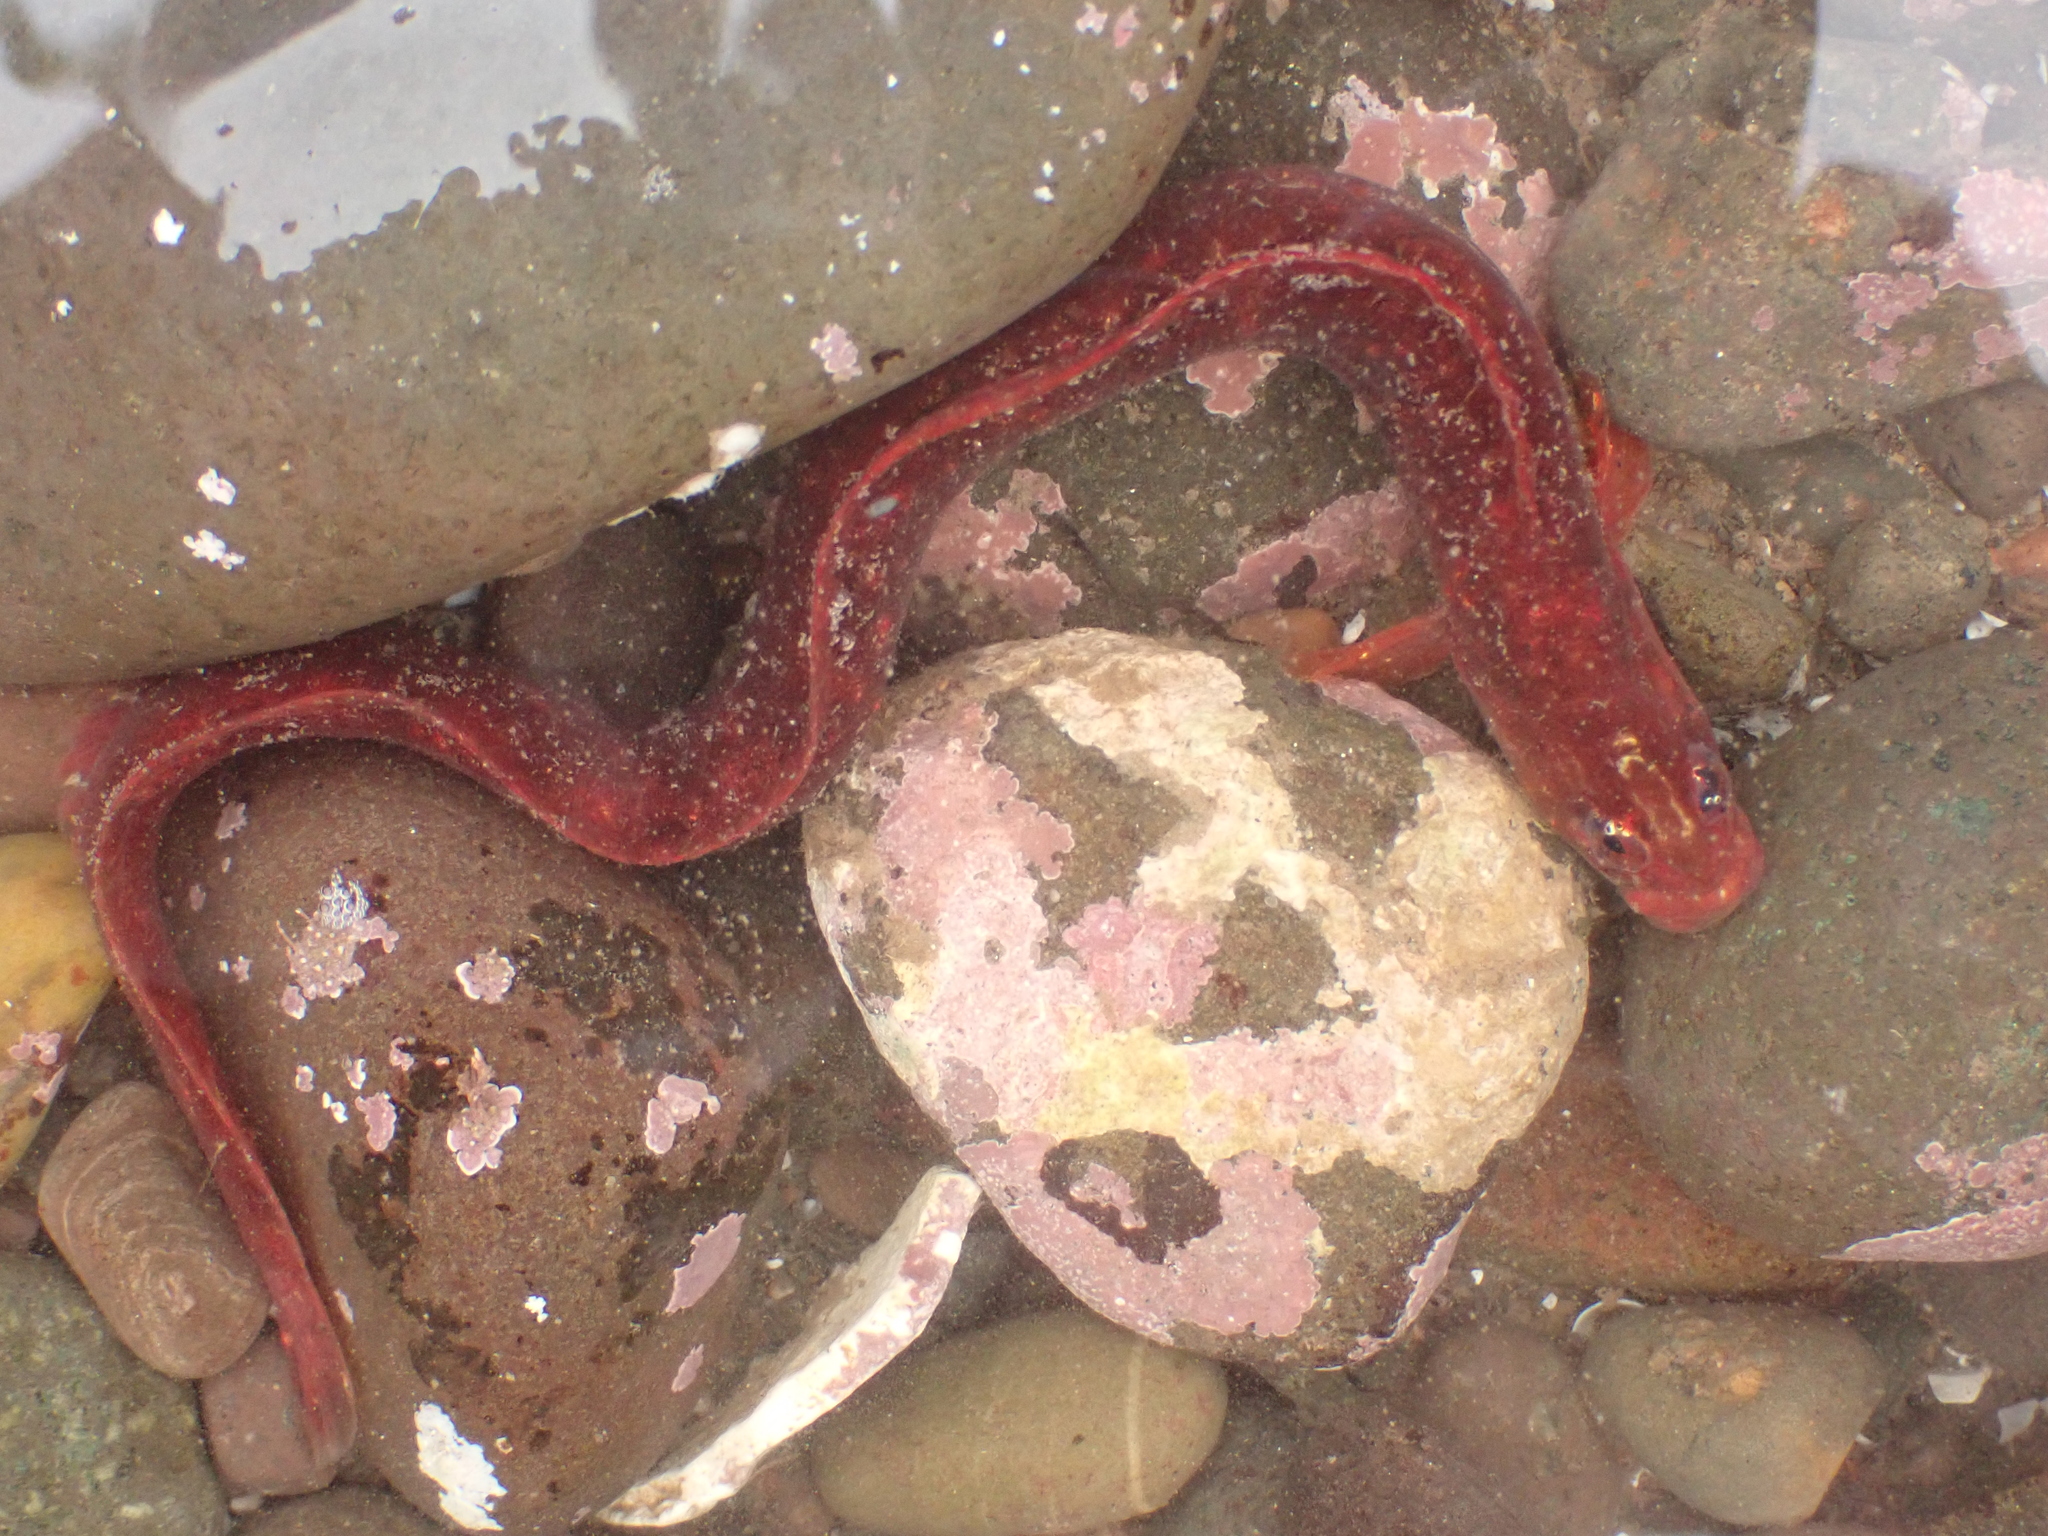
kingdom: Animalia
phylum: Chordata
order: Perciformes
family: Pholidae
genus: Pholis
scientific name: Pholis gunnellus
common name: Butterfish
